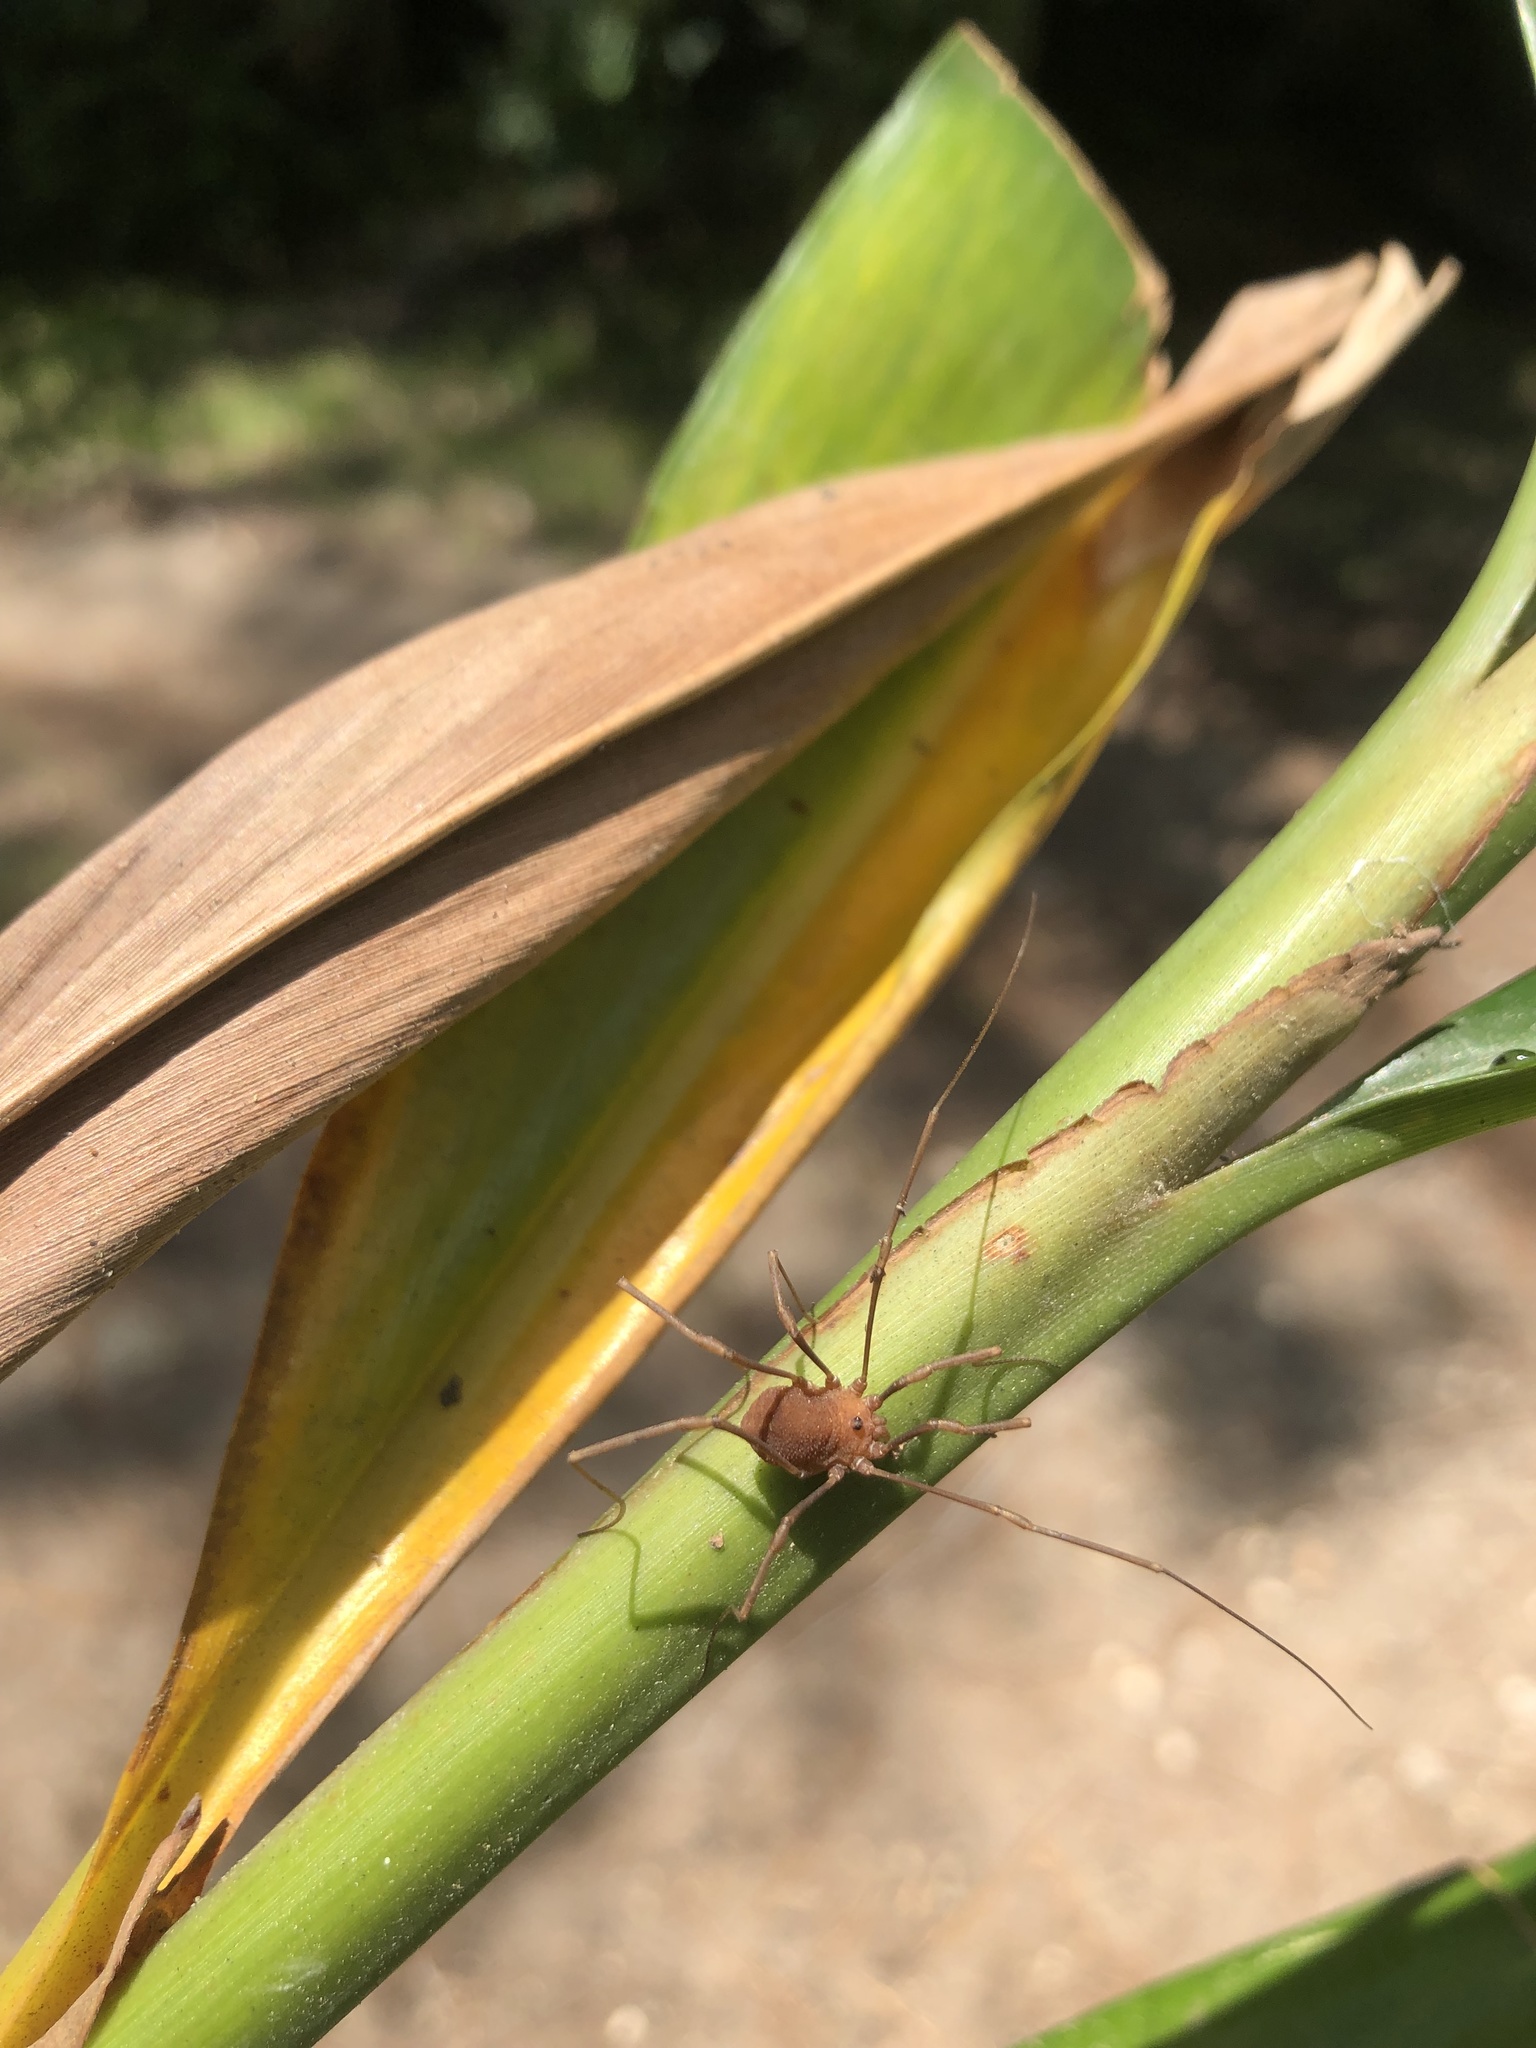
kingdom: Animalia
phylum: Arthropoda
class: Arachnida
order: Opiliones
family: Sclerosomatidae
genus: Hadrobunus
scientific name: Hadrobunus grandis
